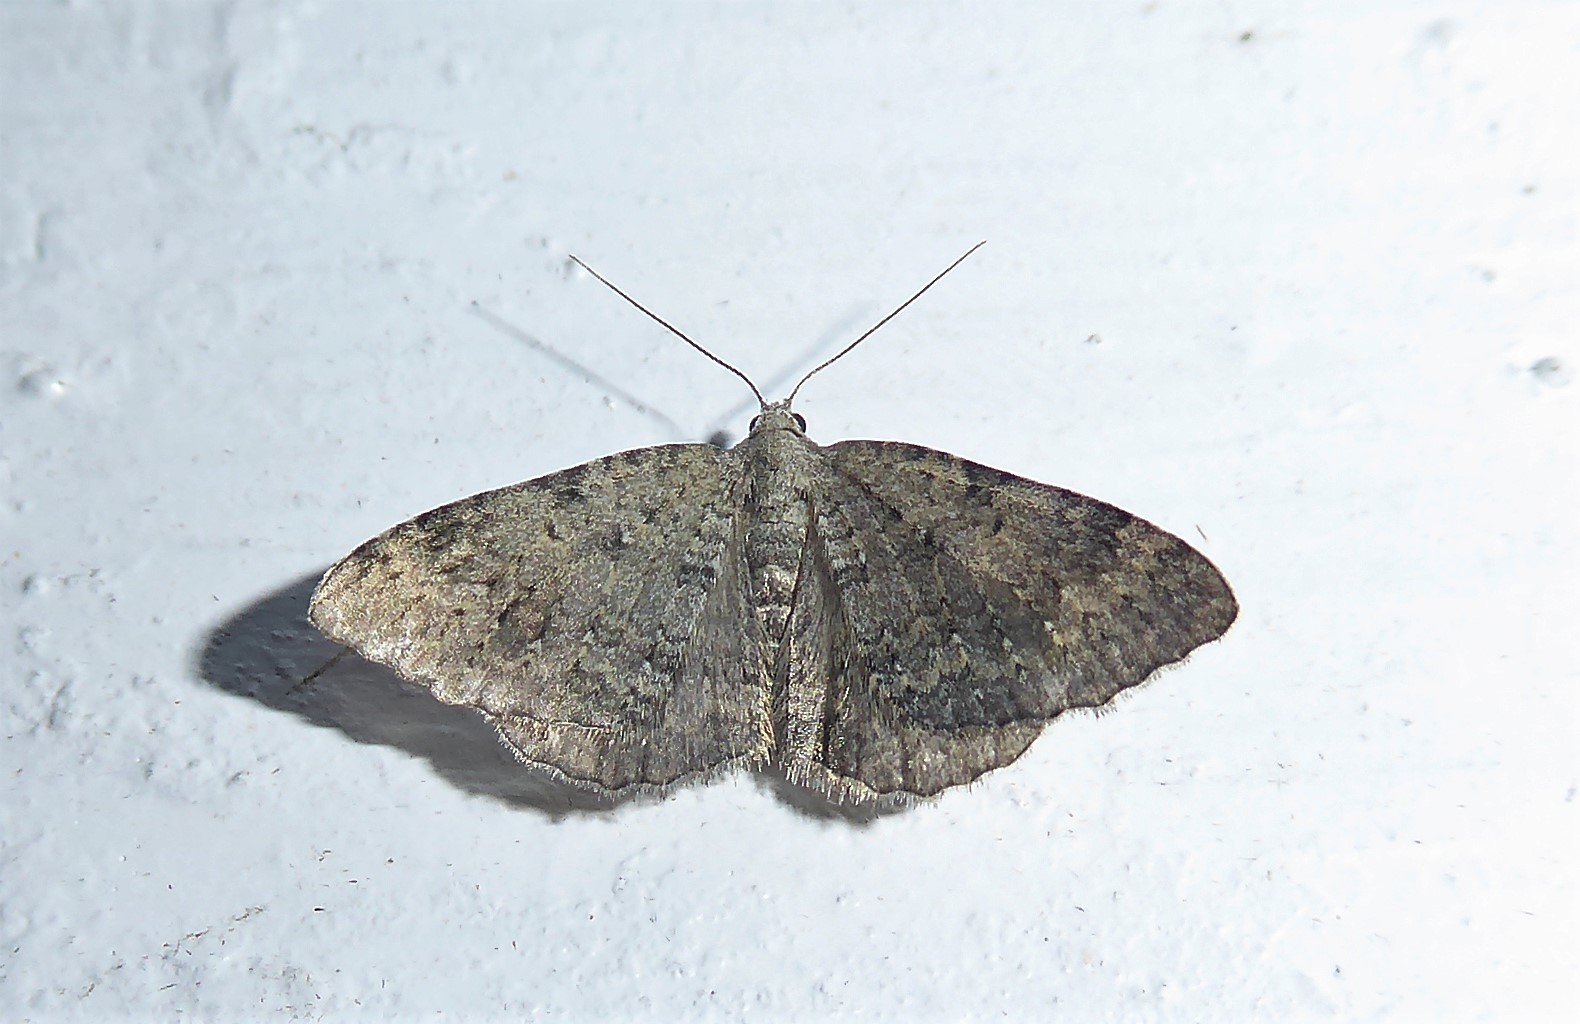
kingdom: Animalia
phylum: Arthropoda
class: Insecta
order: Lepidoptera
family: Geometridae
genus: Helastia
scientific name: Helastia corcularia
